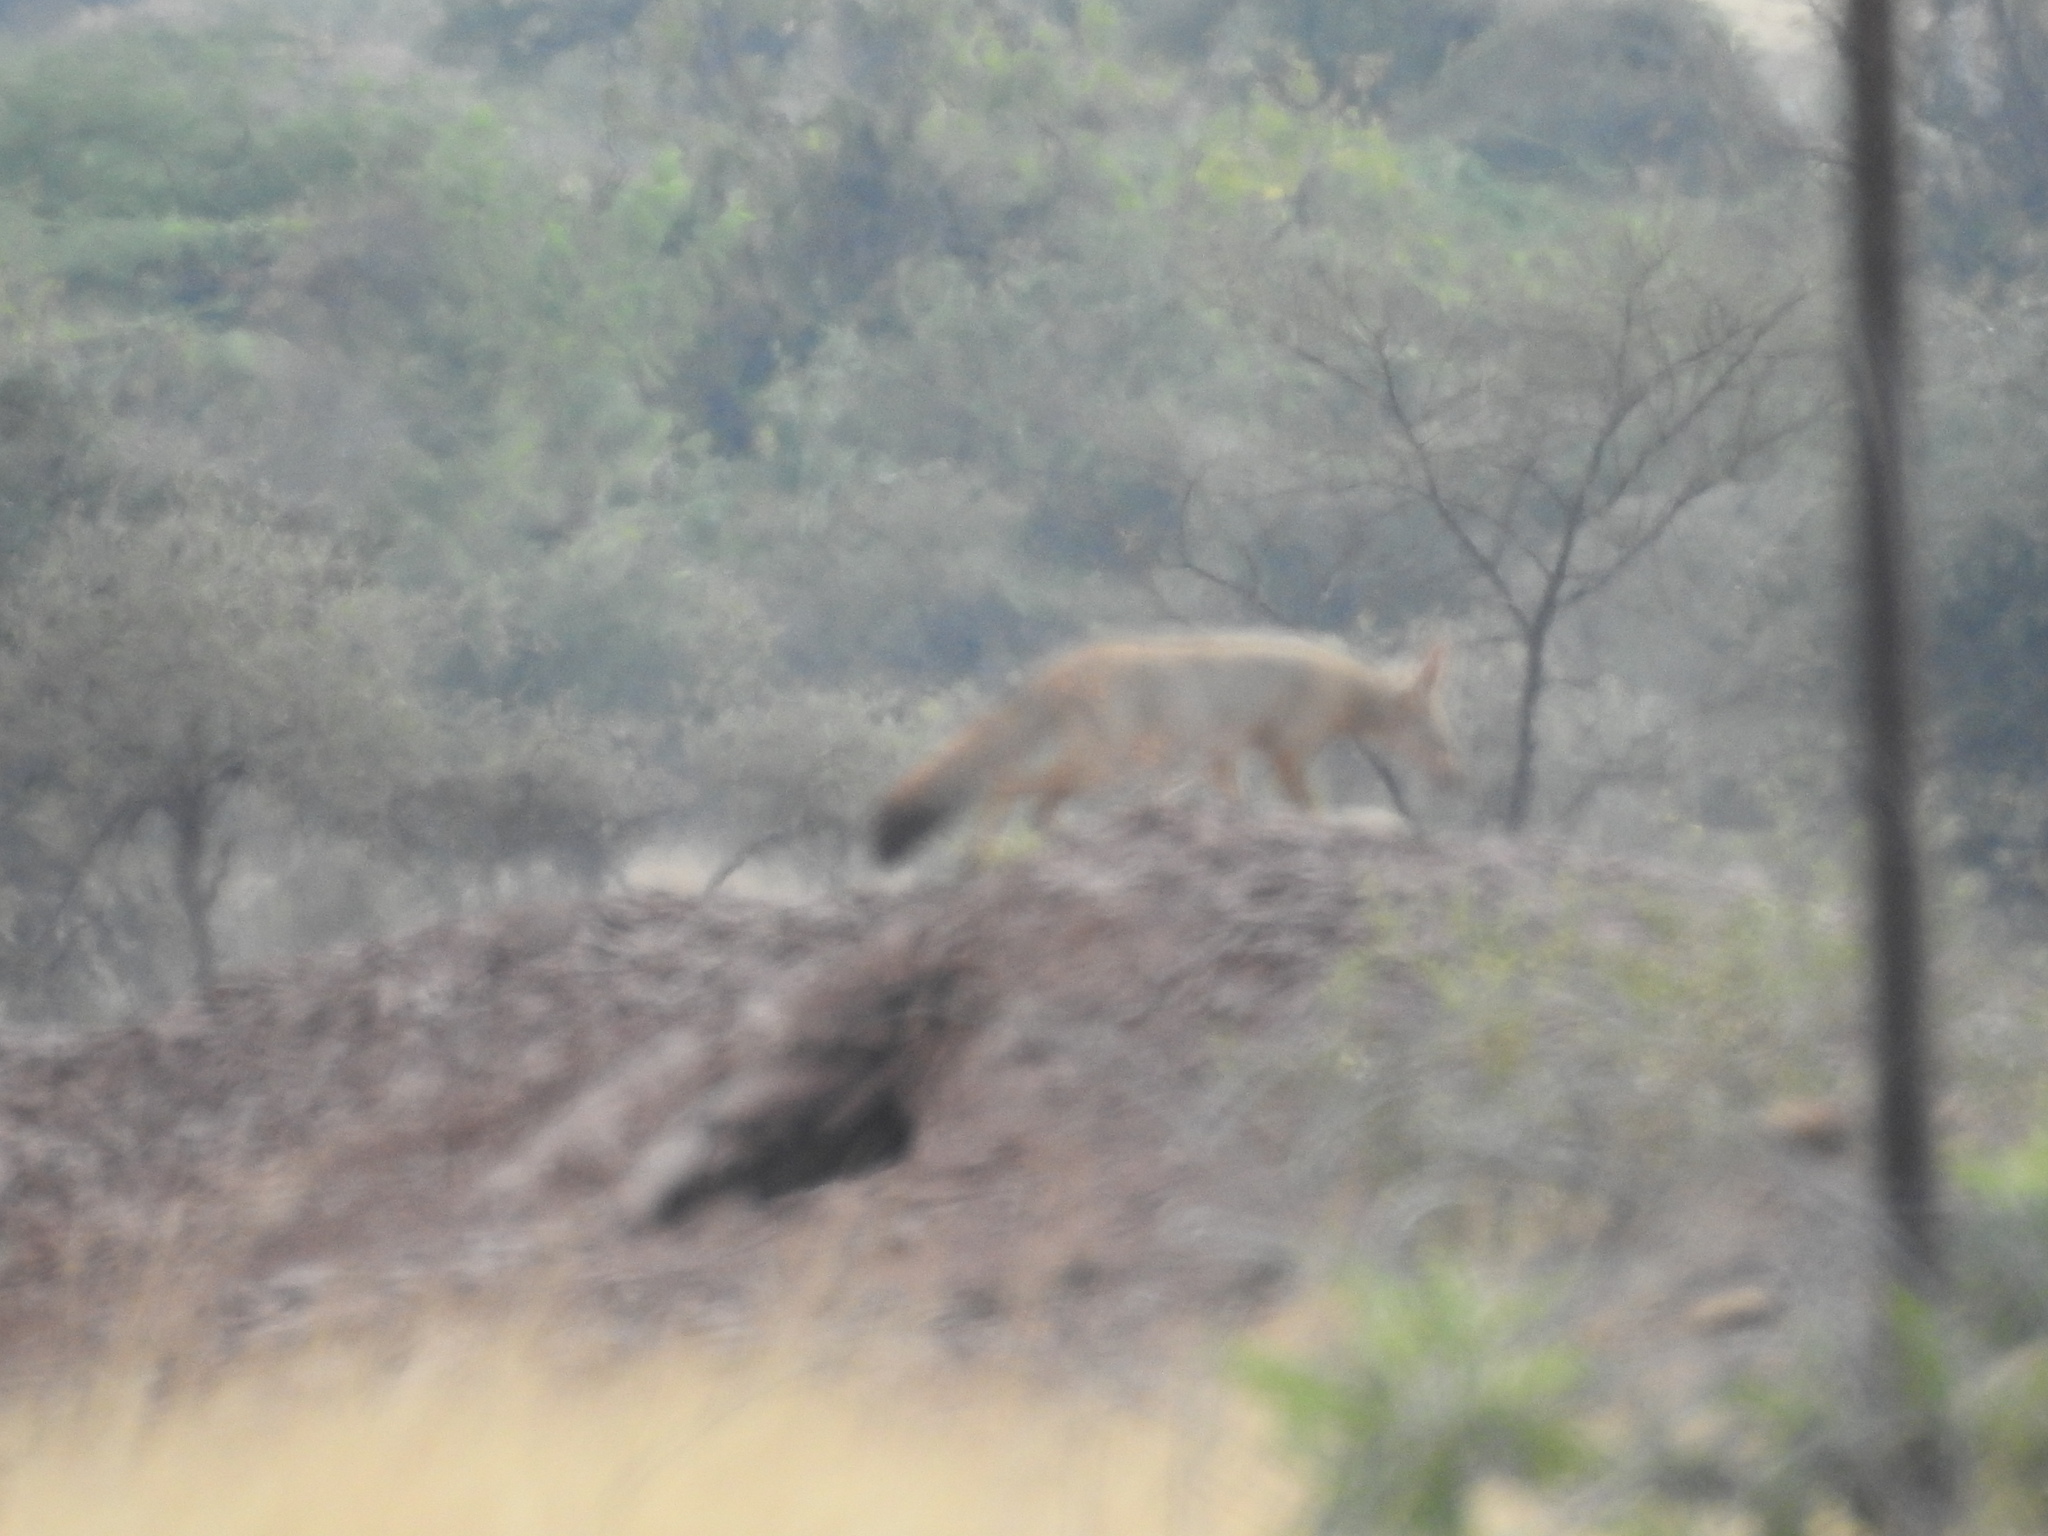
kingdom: Animalia
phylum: Chordata
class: Mammalia
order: Carnivora
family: Canidae
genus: Vulpes
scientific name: Vulpes bengalensis
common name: Bengal fox
